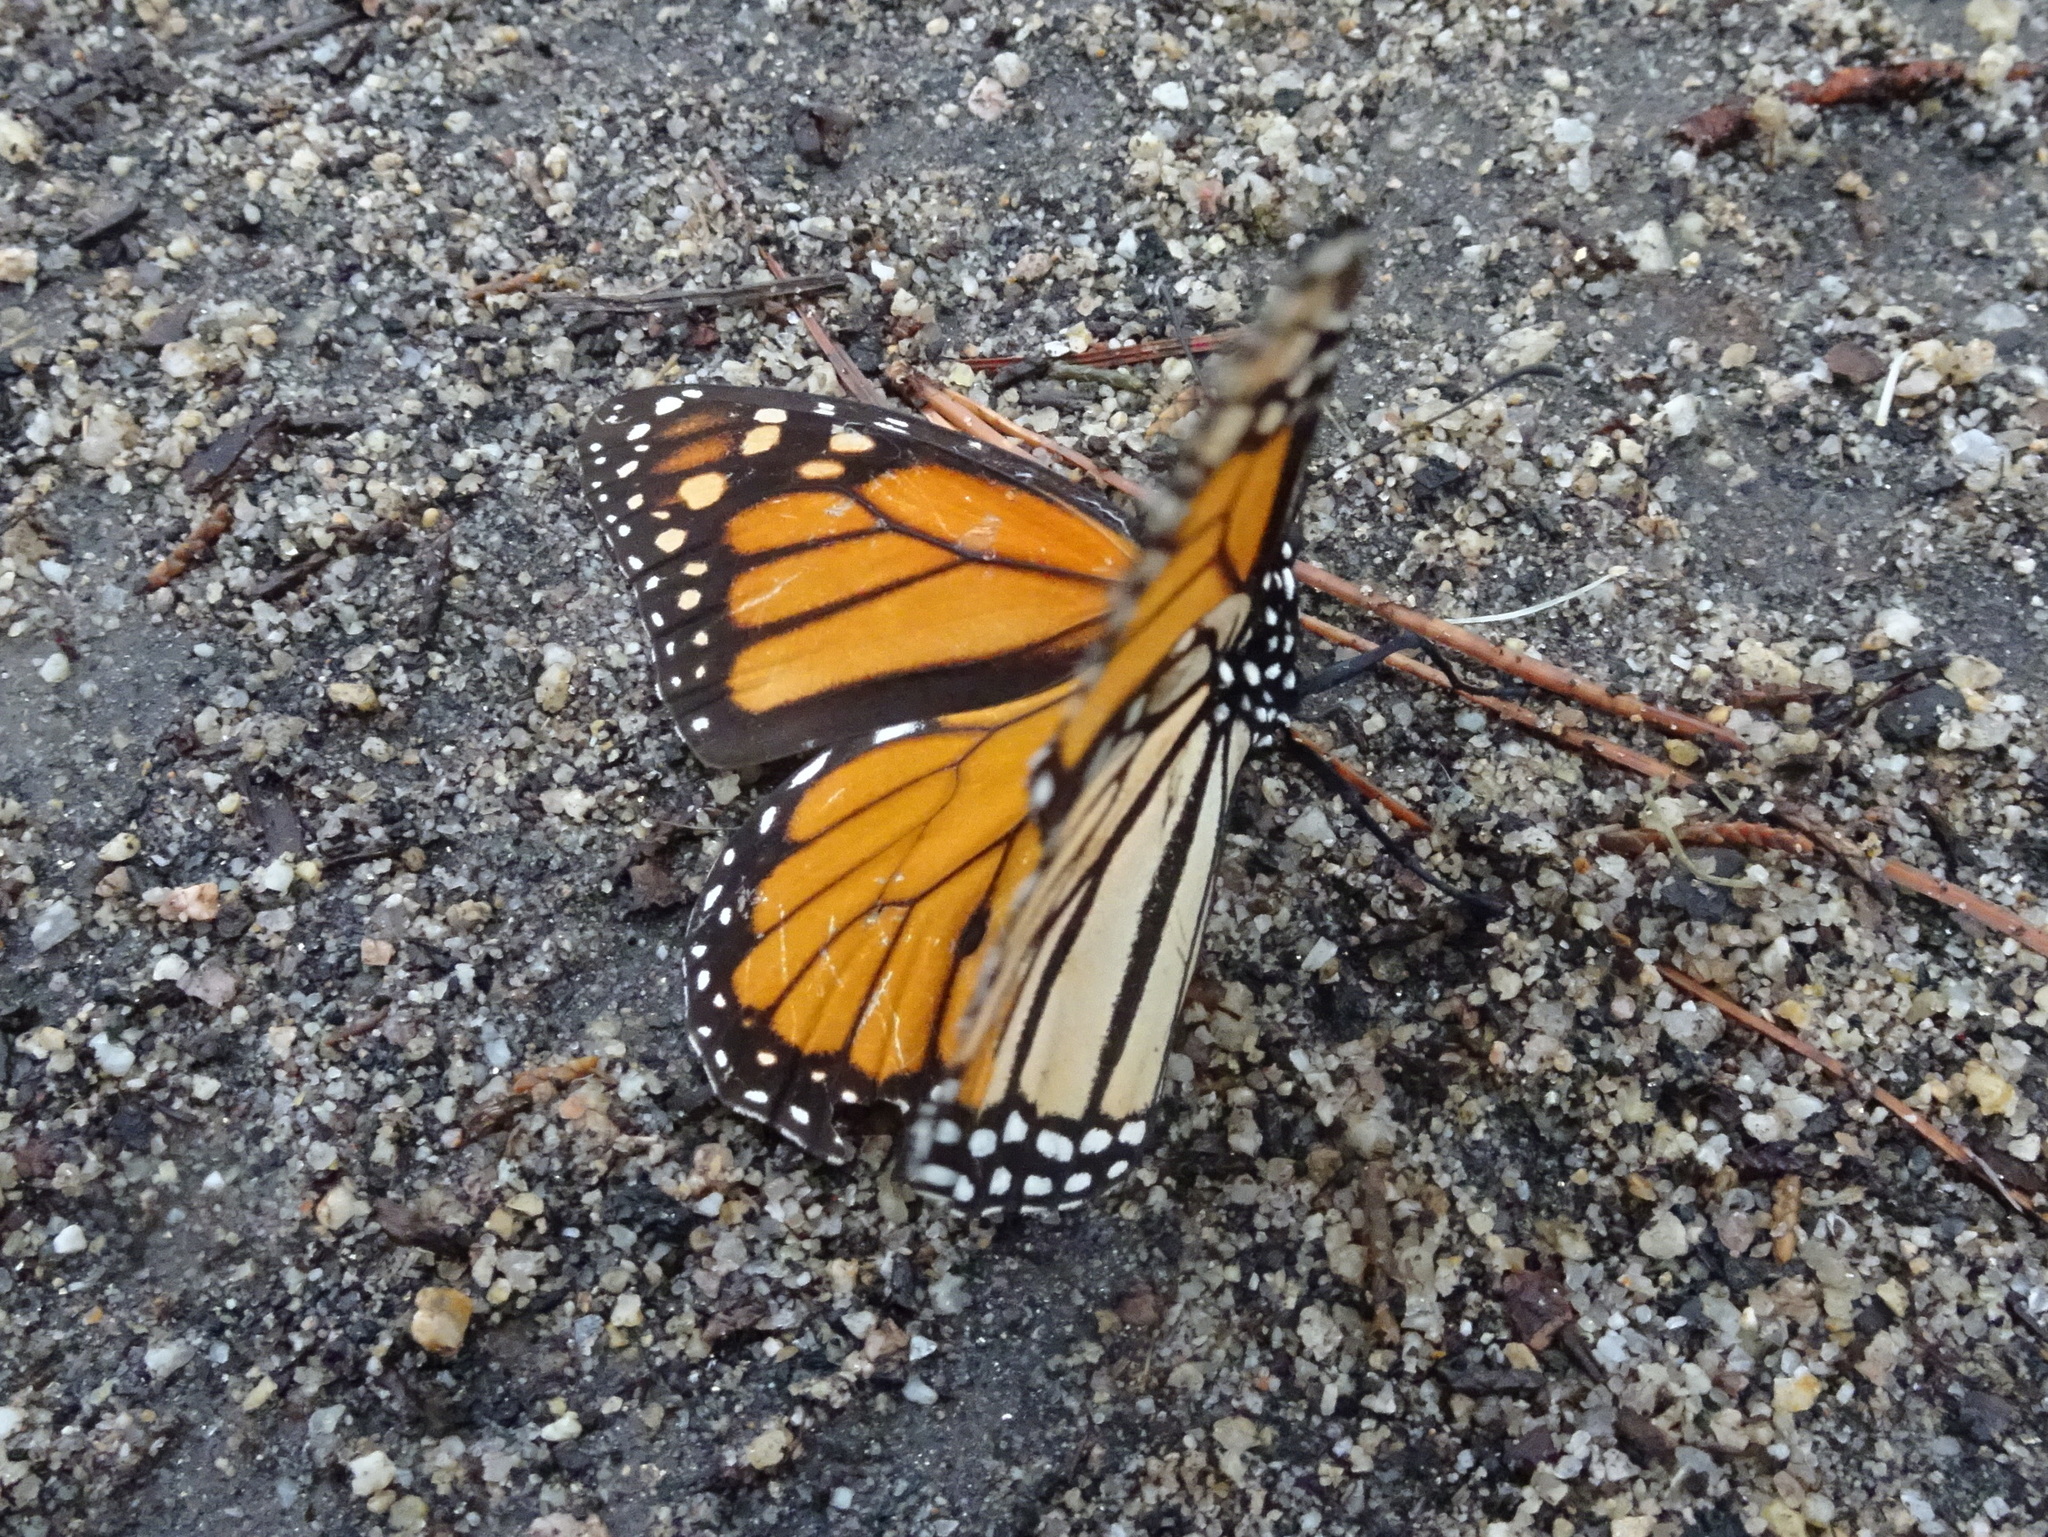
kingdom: Animalia
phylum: Arthropoda
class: Insecta
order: Lepidoptera
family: Nymphalidae
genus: Danaus
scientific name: Danaus plexippus
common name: Monarch
